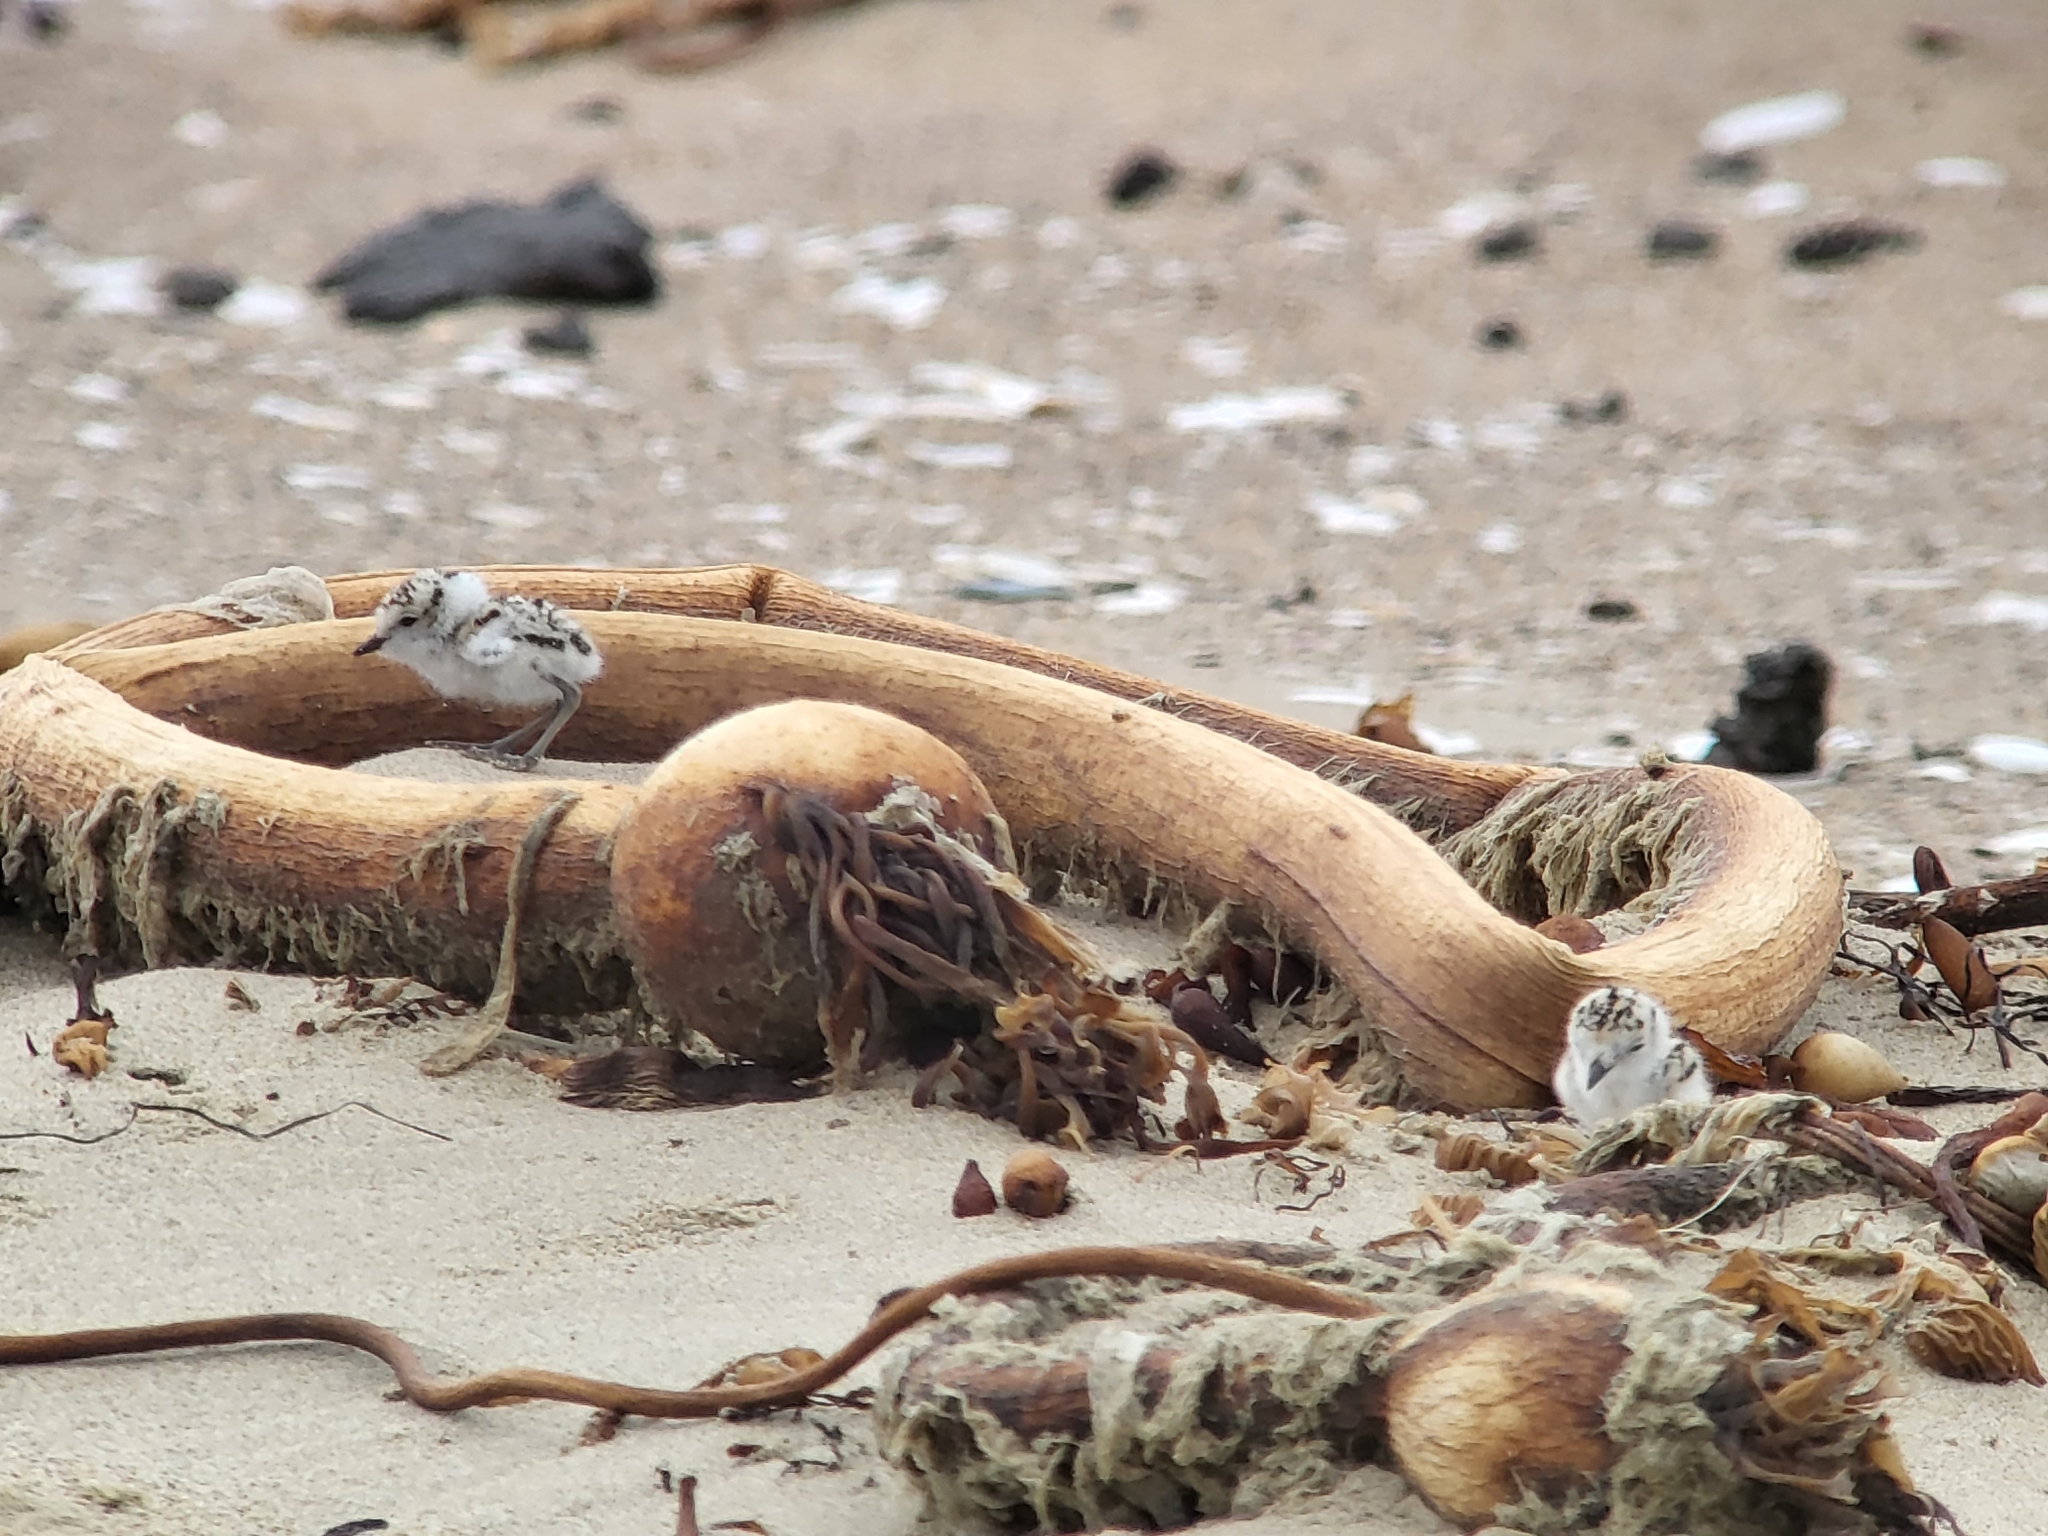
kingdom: Animalia
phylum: Chordata
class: Aves
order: Charadriiformes
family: Charadriidae
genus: Anarhynchus
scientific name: Anarhynchus
